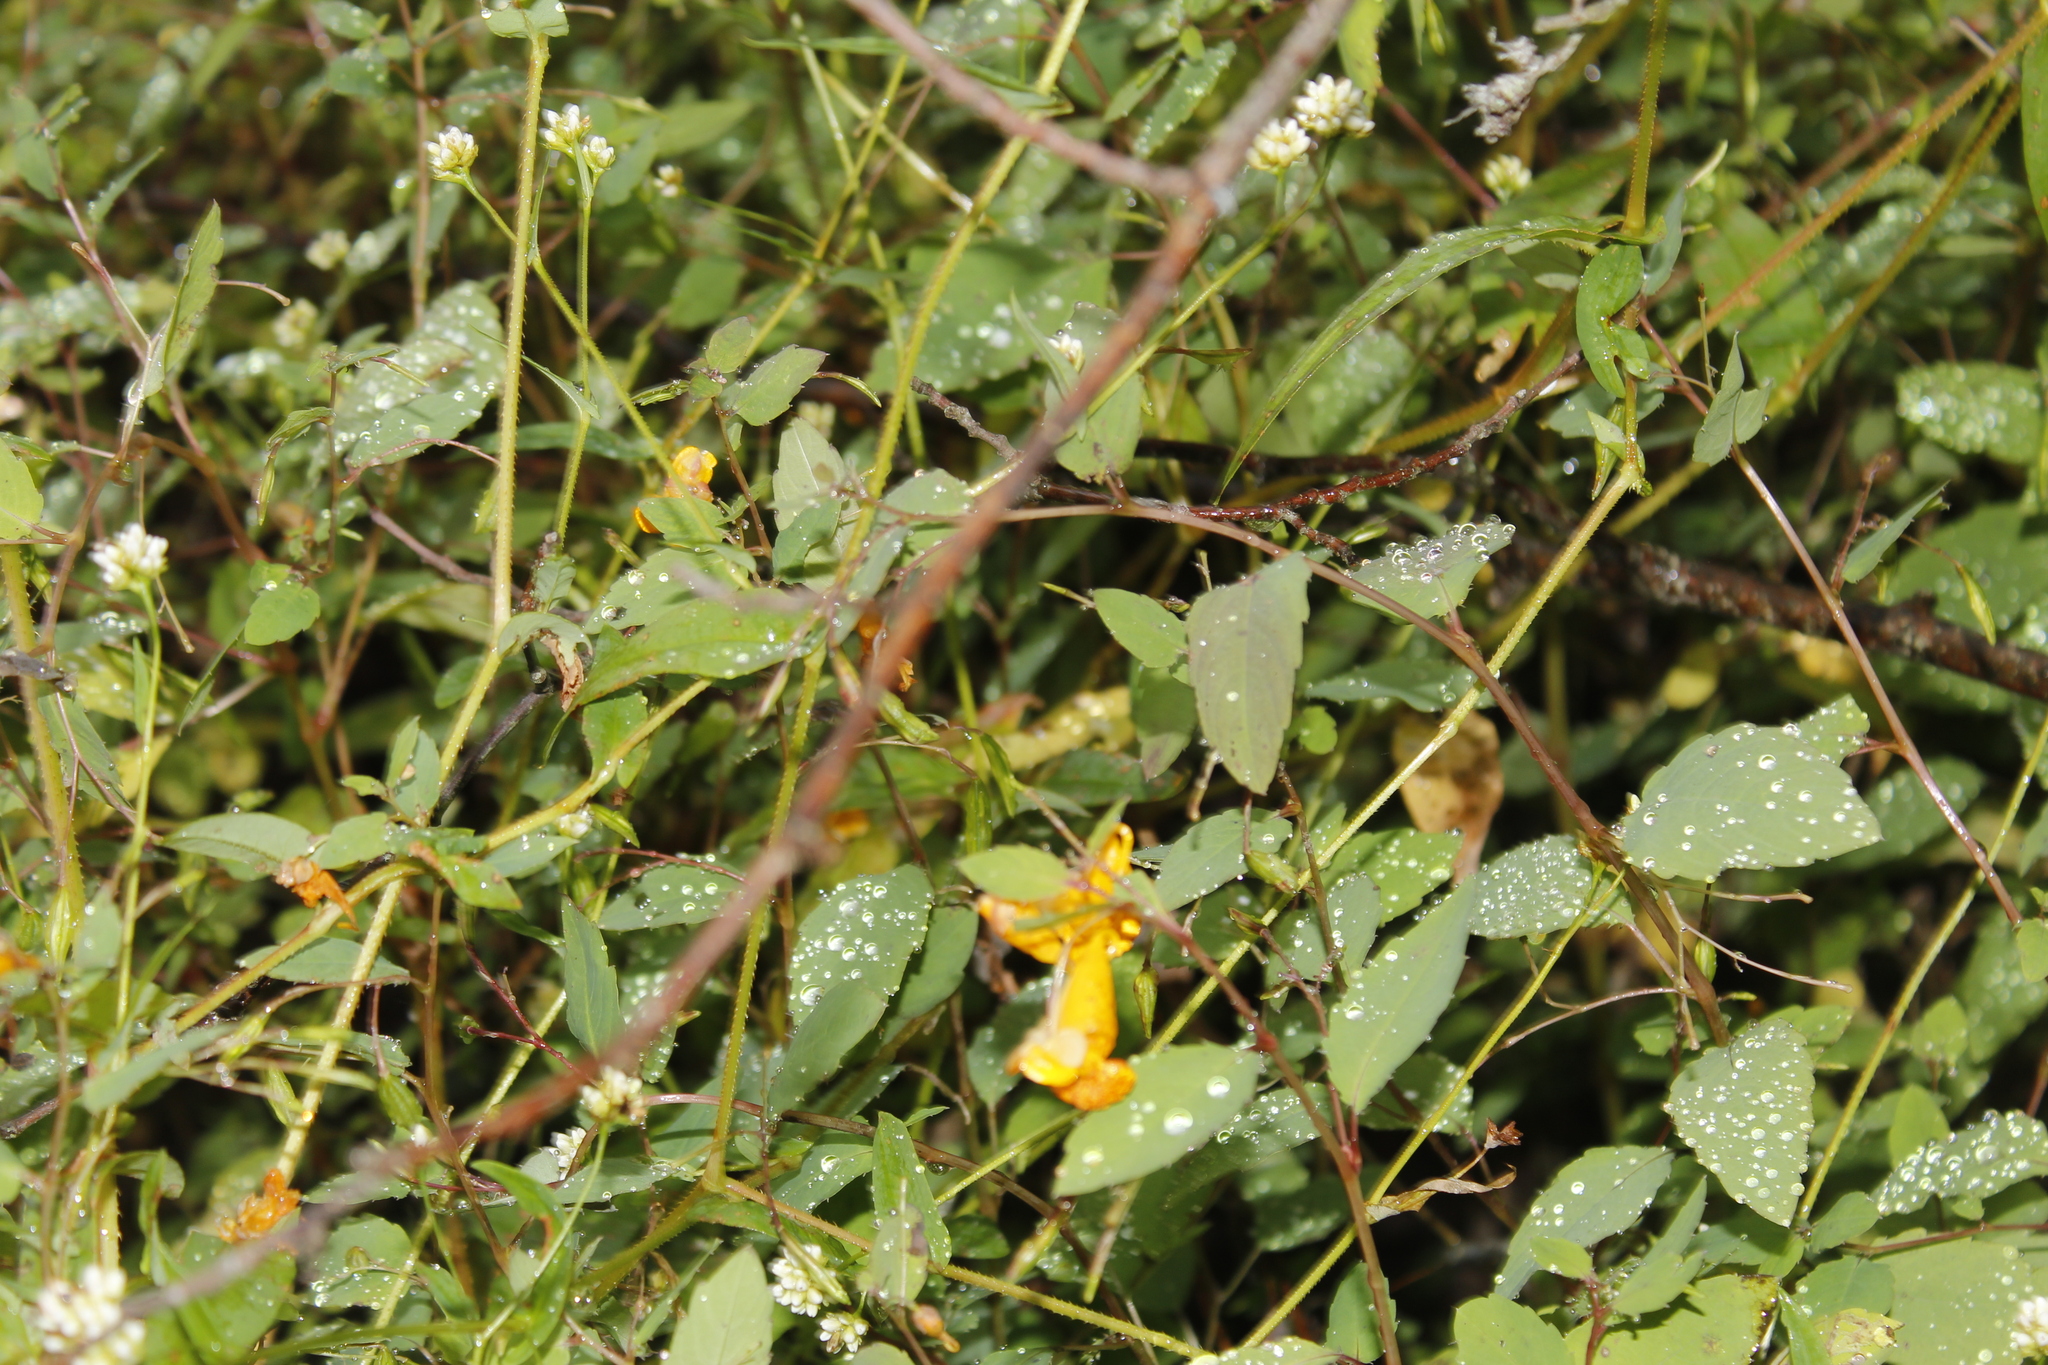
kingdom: Plantae
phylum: Tracheophyta
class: Magnoliopsida
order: Ericales
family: Balsaminaceae
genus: Impatiens
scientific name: Impatiens capensis
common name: Orange balsam
